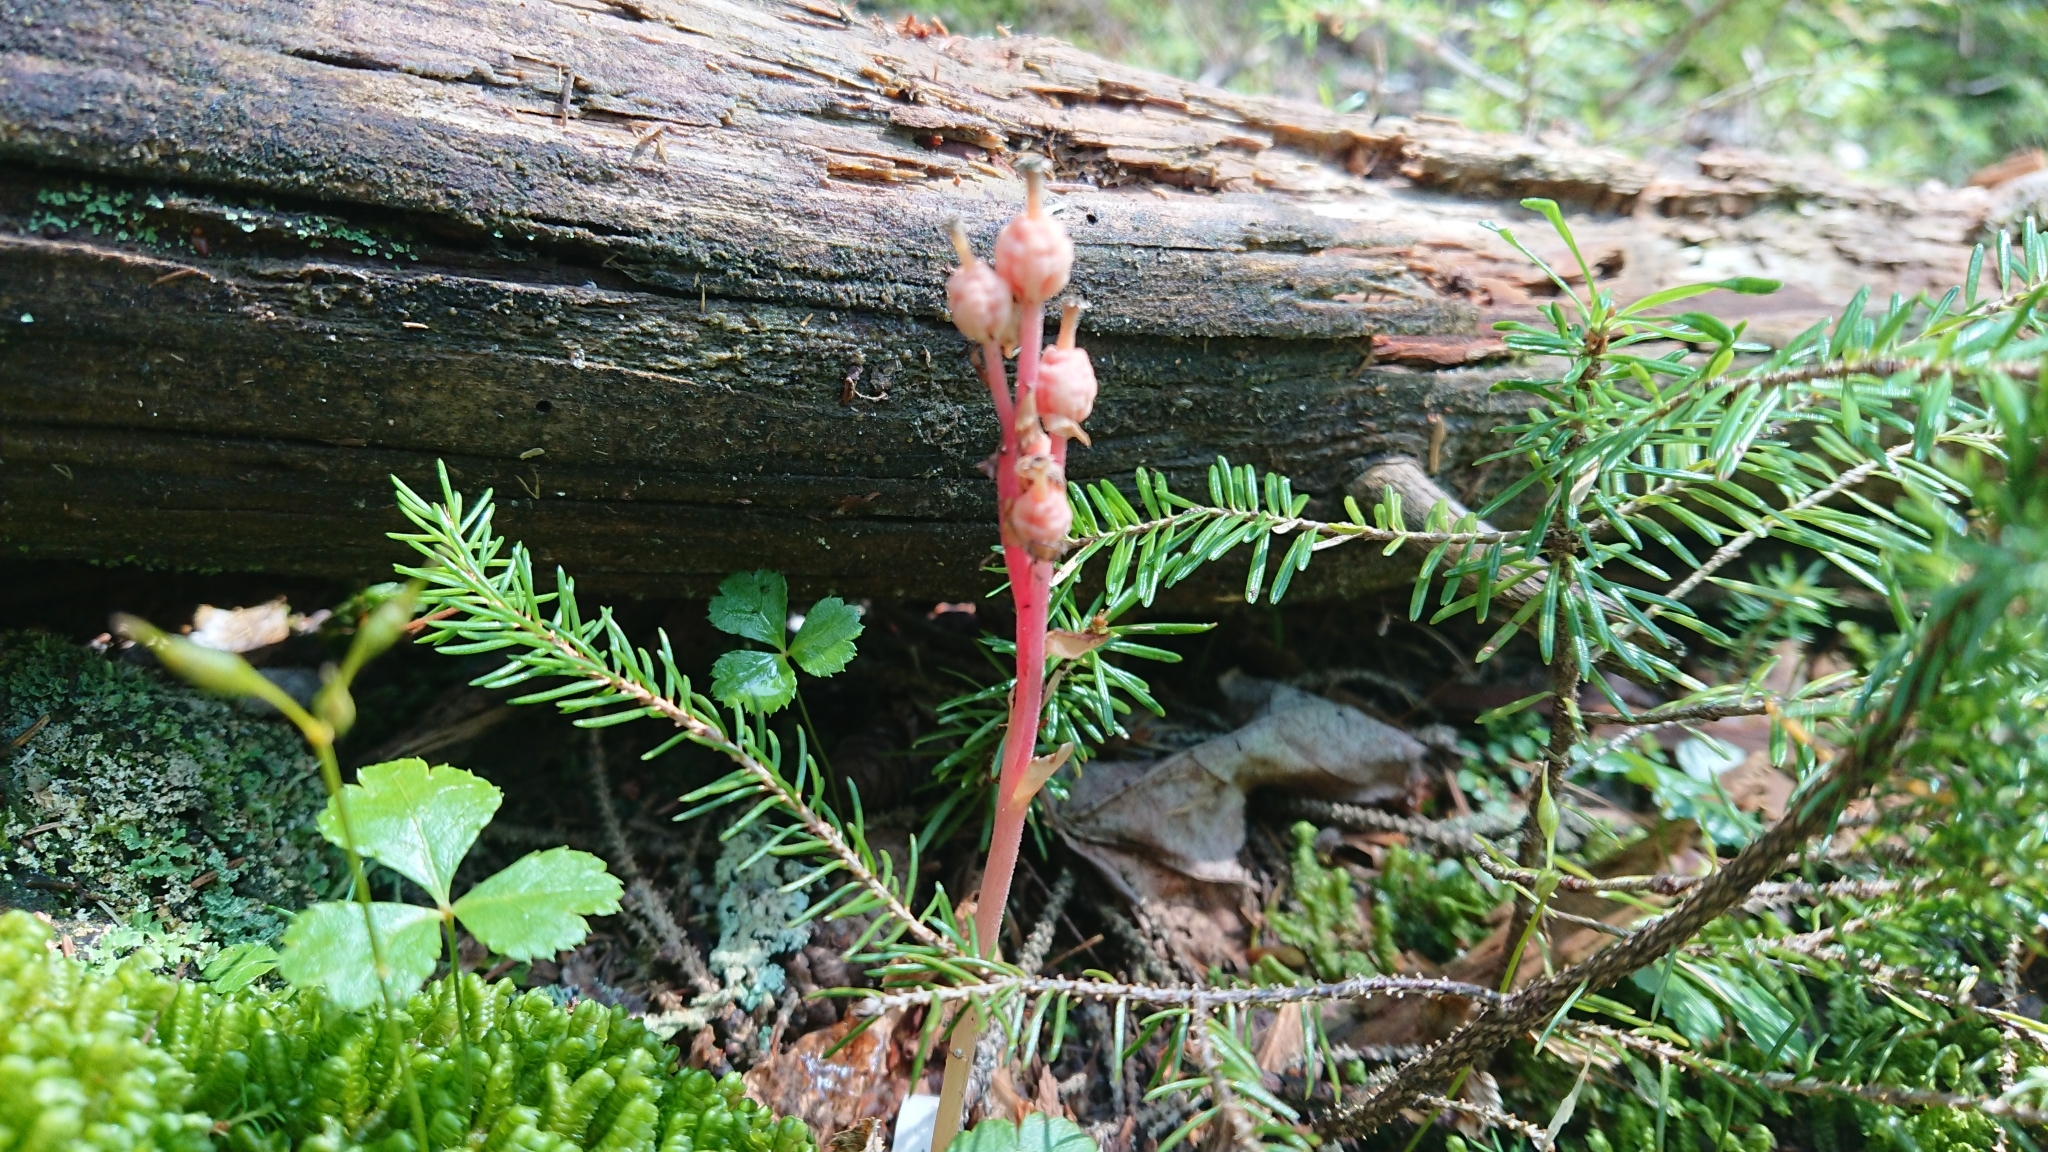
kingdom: Plantae
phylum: Tracheophyta
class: Magnoliopsida
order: Ericales
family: Ericaceae
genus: Hypopitys
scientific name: Hypopitys monotropa
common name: Yellow bird's-nest
